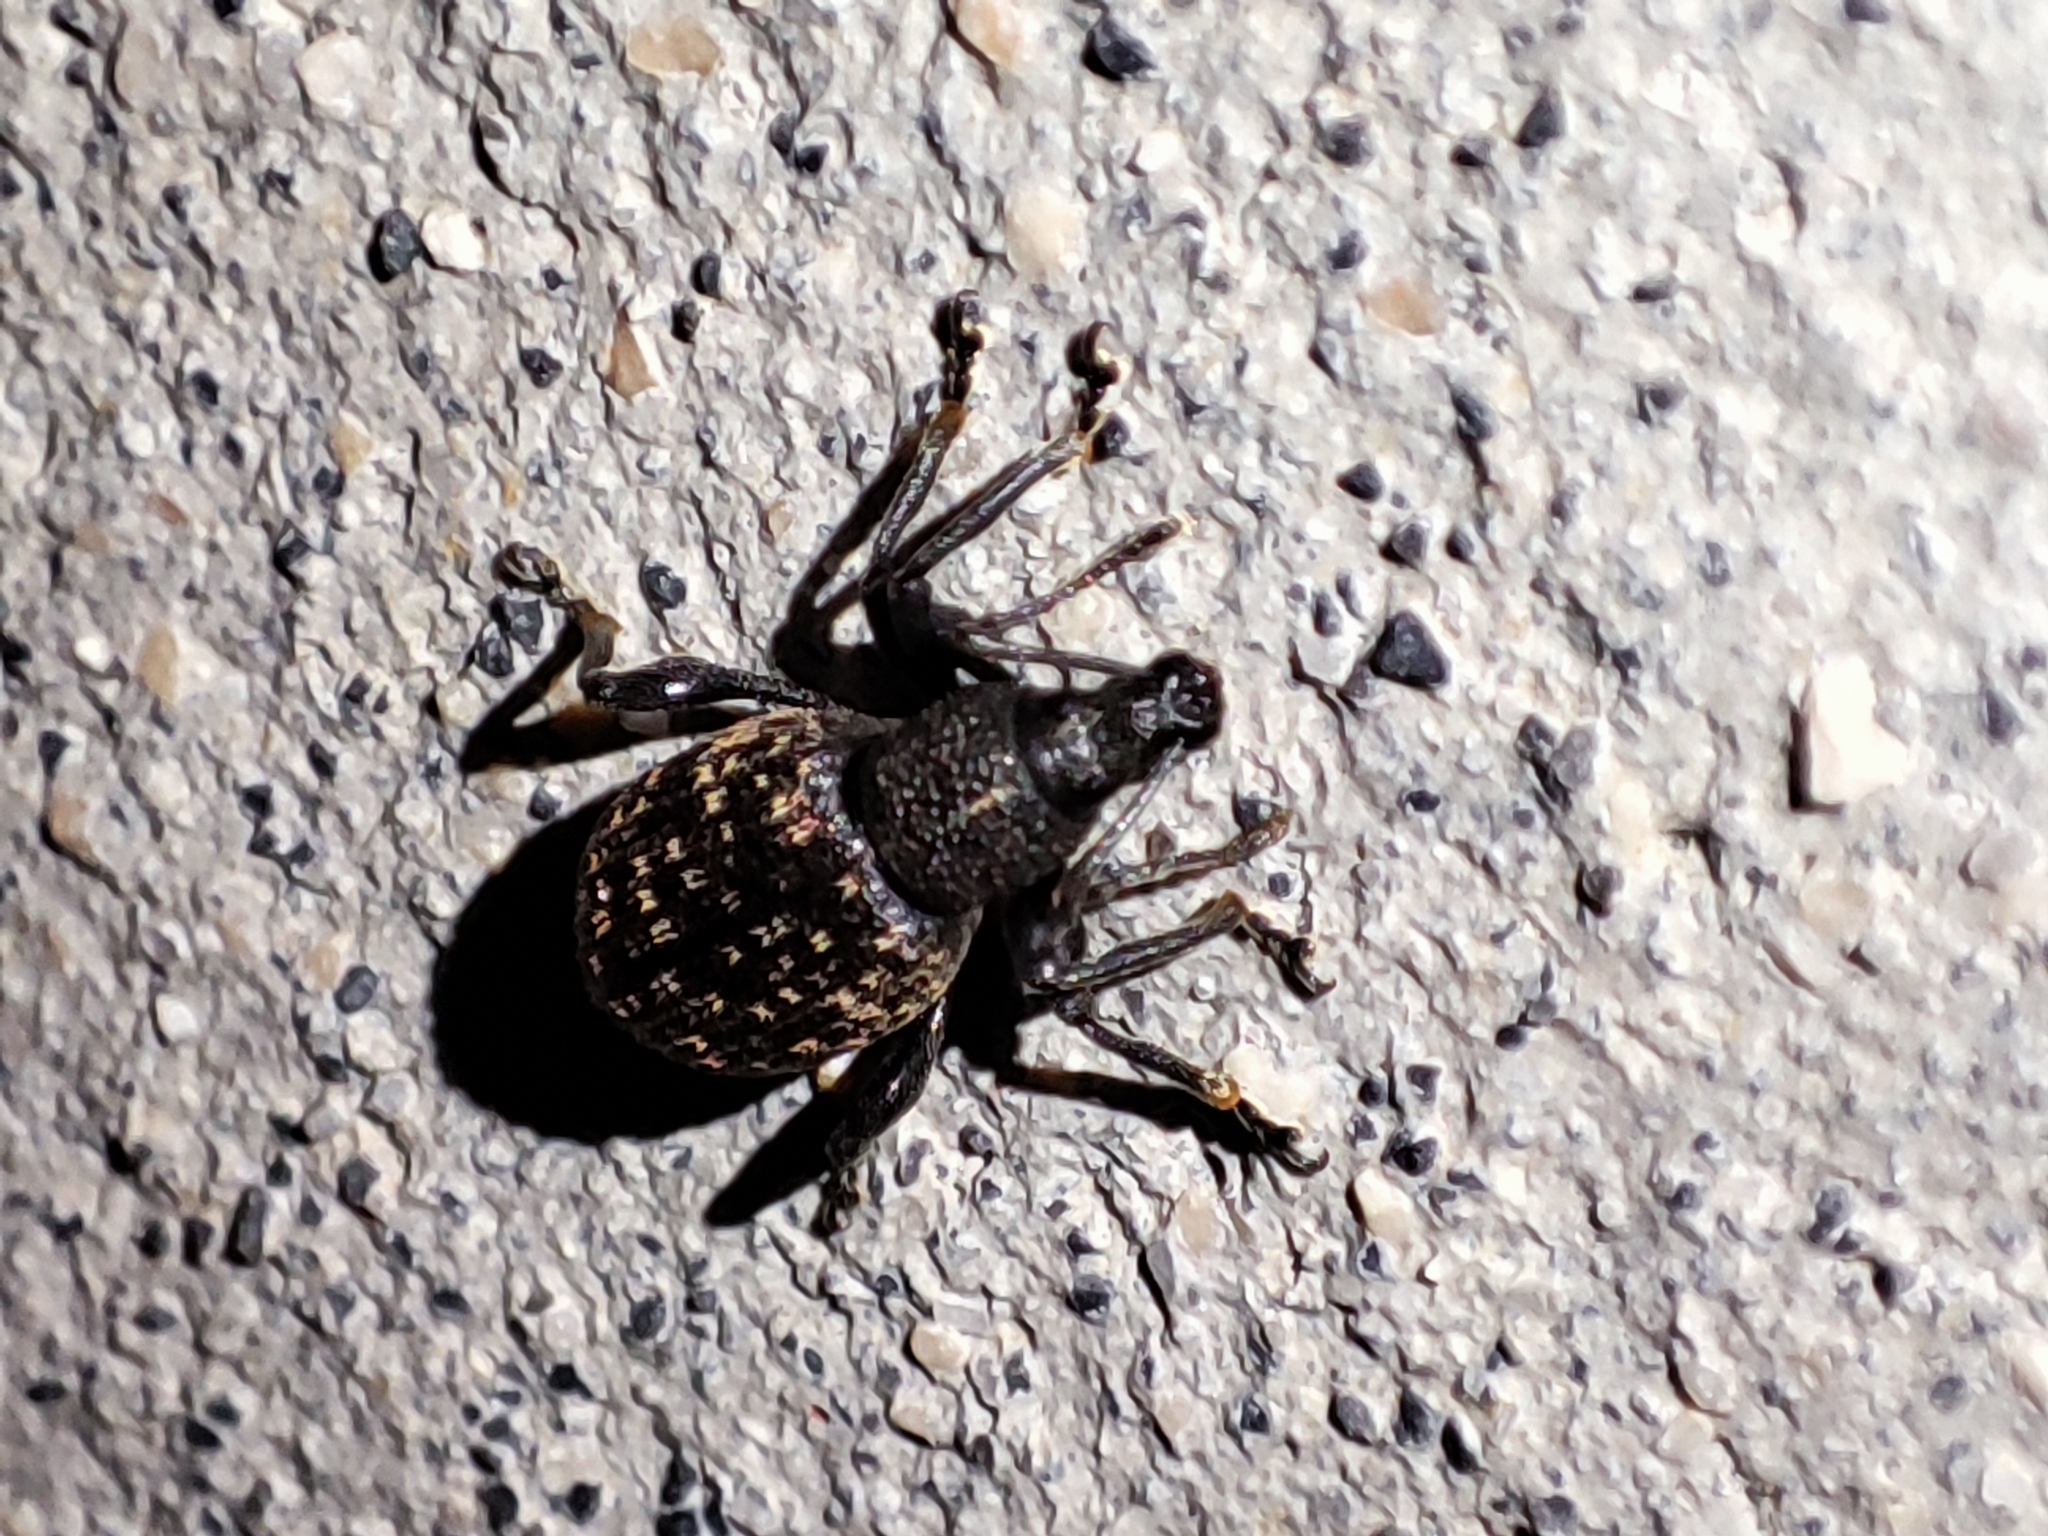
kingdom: Animalia
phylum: Arthropoda
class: Insecta
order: Coleoptera
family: Curculionidae
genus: Otiorhynchus
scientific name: Otiorhynchus sulcatus
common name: Black vine weevil
